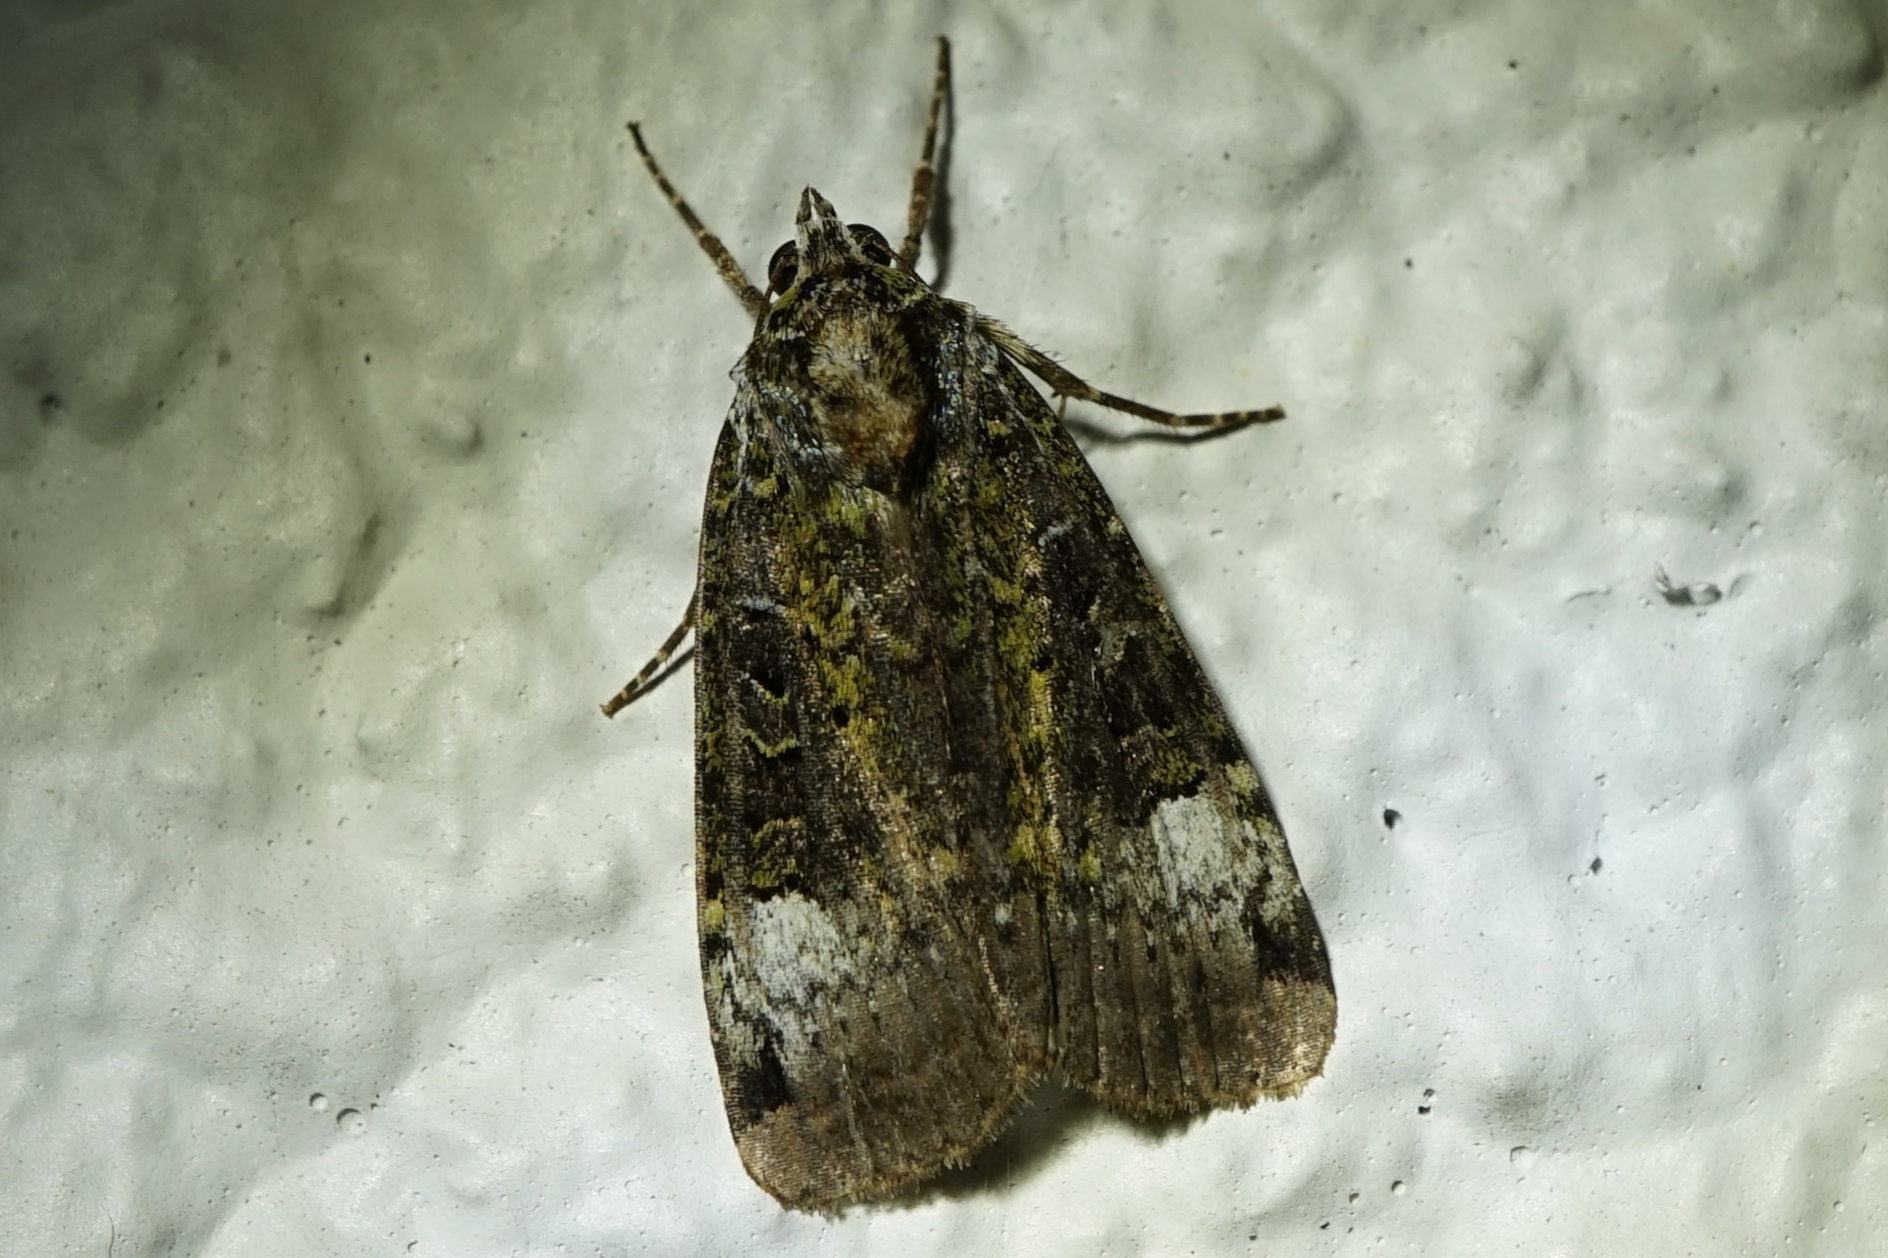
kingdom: Animalia
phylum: Arthropoda
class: Insecta
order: Lepidoptera
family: Noctuidae
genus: Xestia
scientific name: Xestia efflorescens
